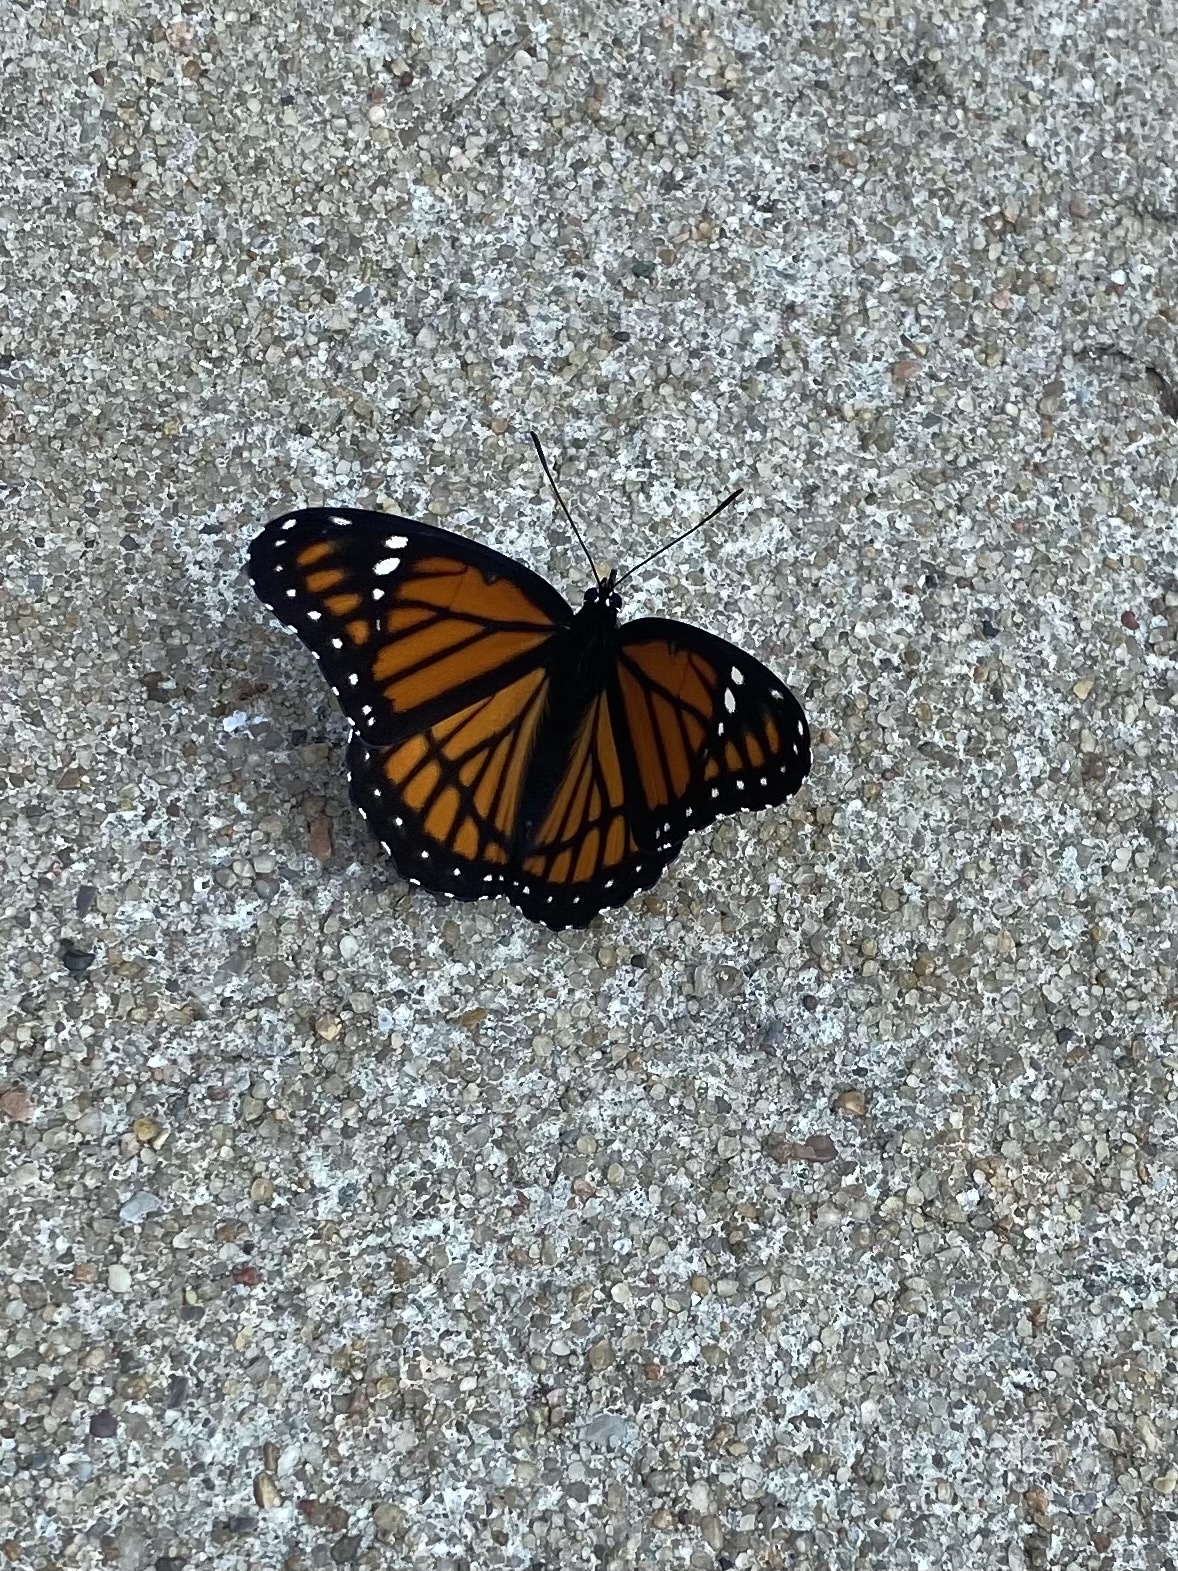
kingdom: Animalia
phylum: Arthropoda
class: Insecta
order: Lepidoptera
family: Nymphalidae
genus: Limenitis
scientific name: Limenitis archippus
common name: Viceroy
